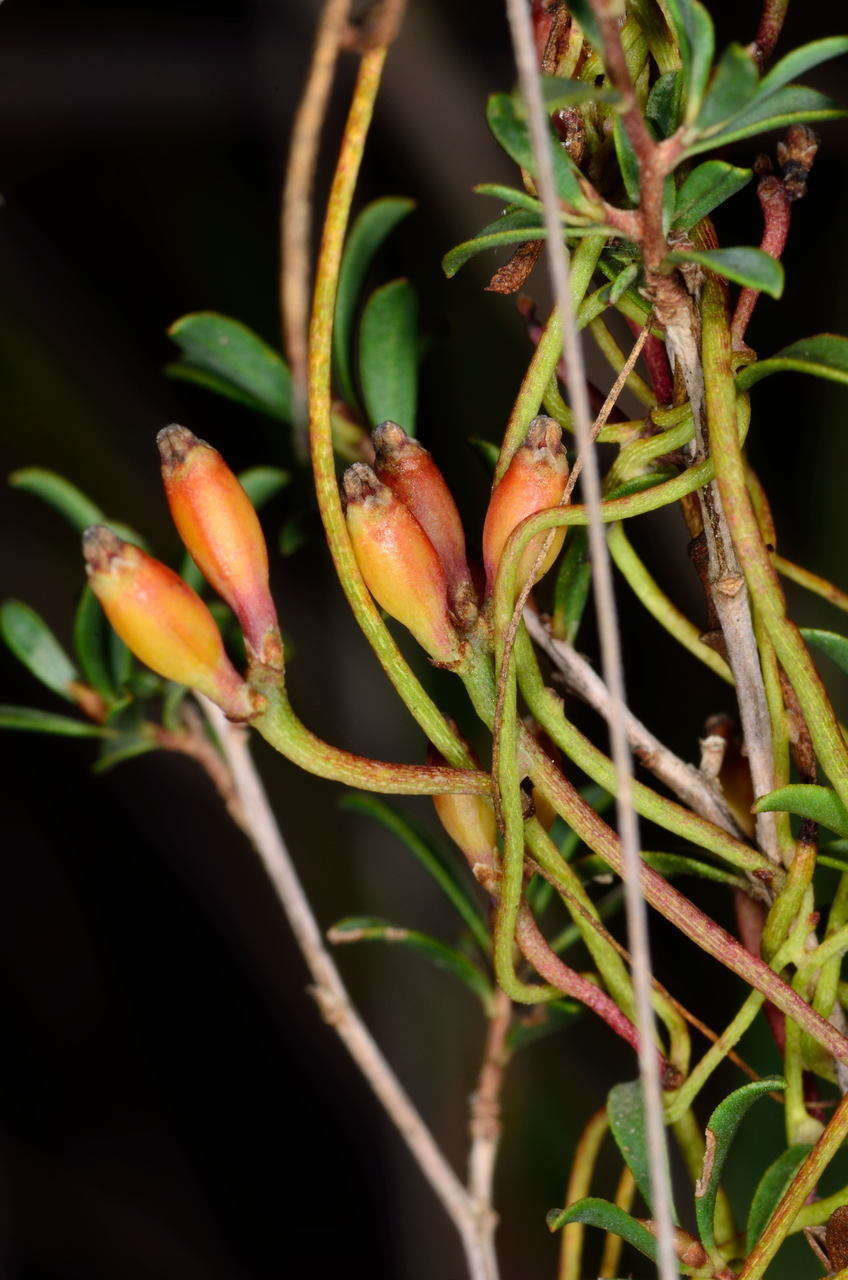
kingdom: Plantae
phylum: Tracheophyta
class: Magnoliopsida
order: Laurales
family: Lauraceae
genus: Cassytha
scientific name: Cassytha glabella
